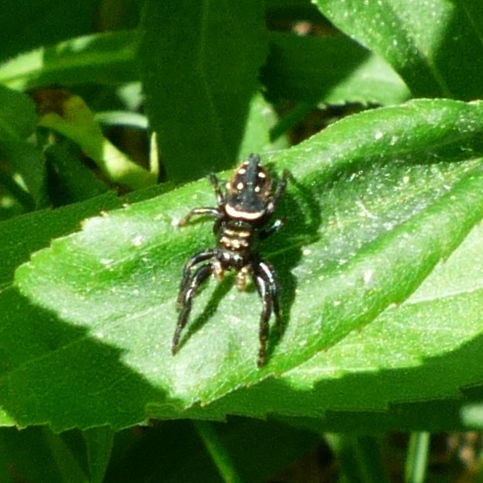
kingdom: Animalia
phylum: Arthropoda
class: Arachnida
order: Araneae
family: Salticidae
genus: Phidippus
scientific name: Phidippus clarus
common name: Brilliant jumping spider
